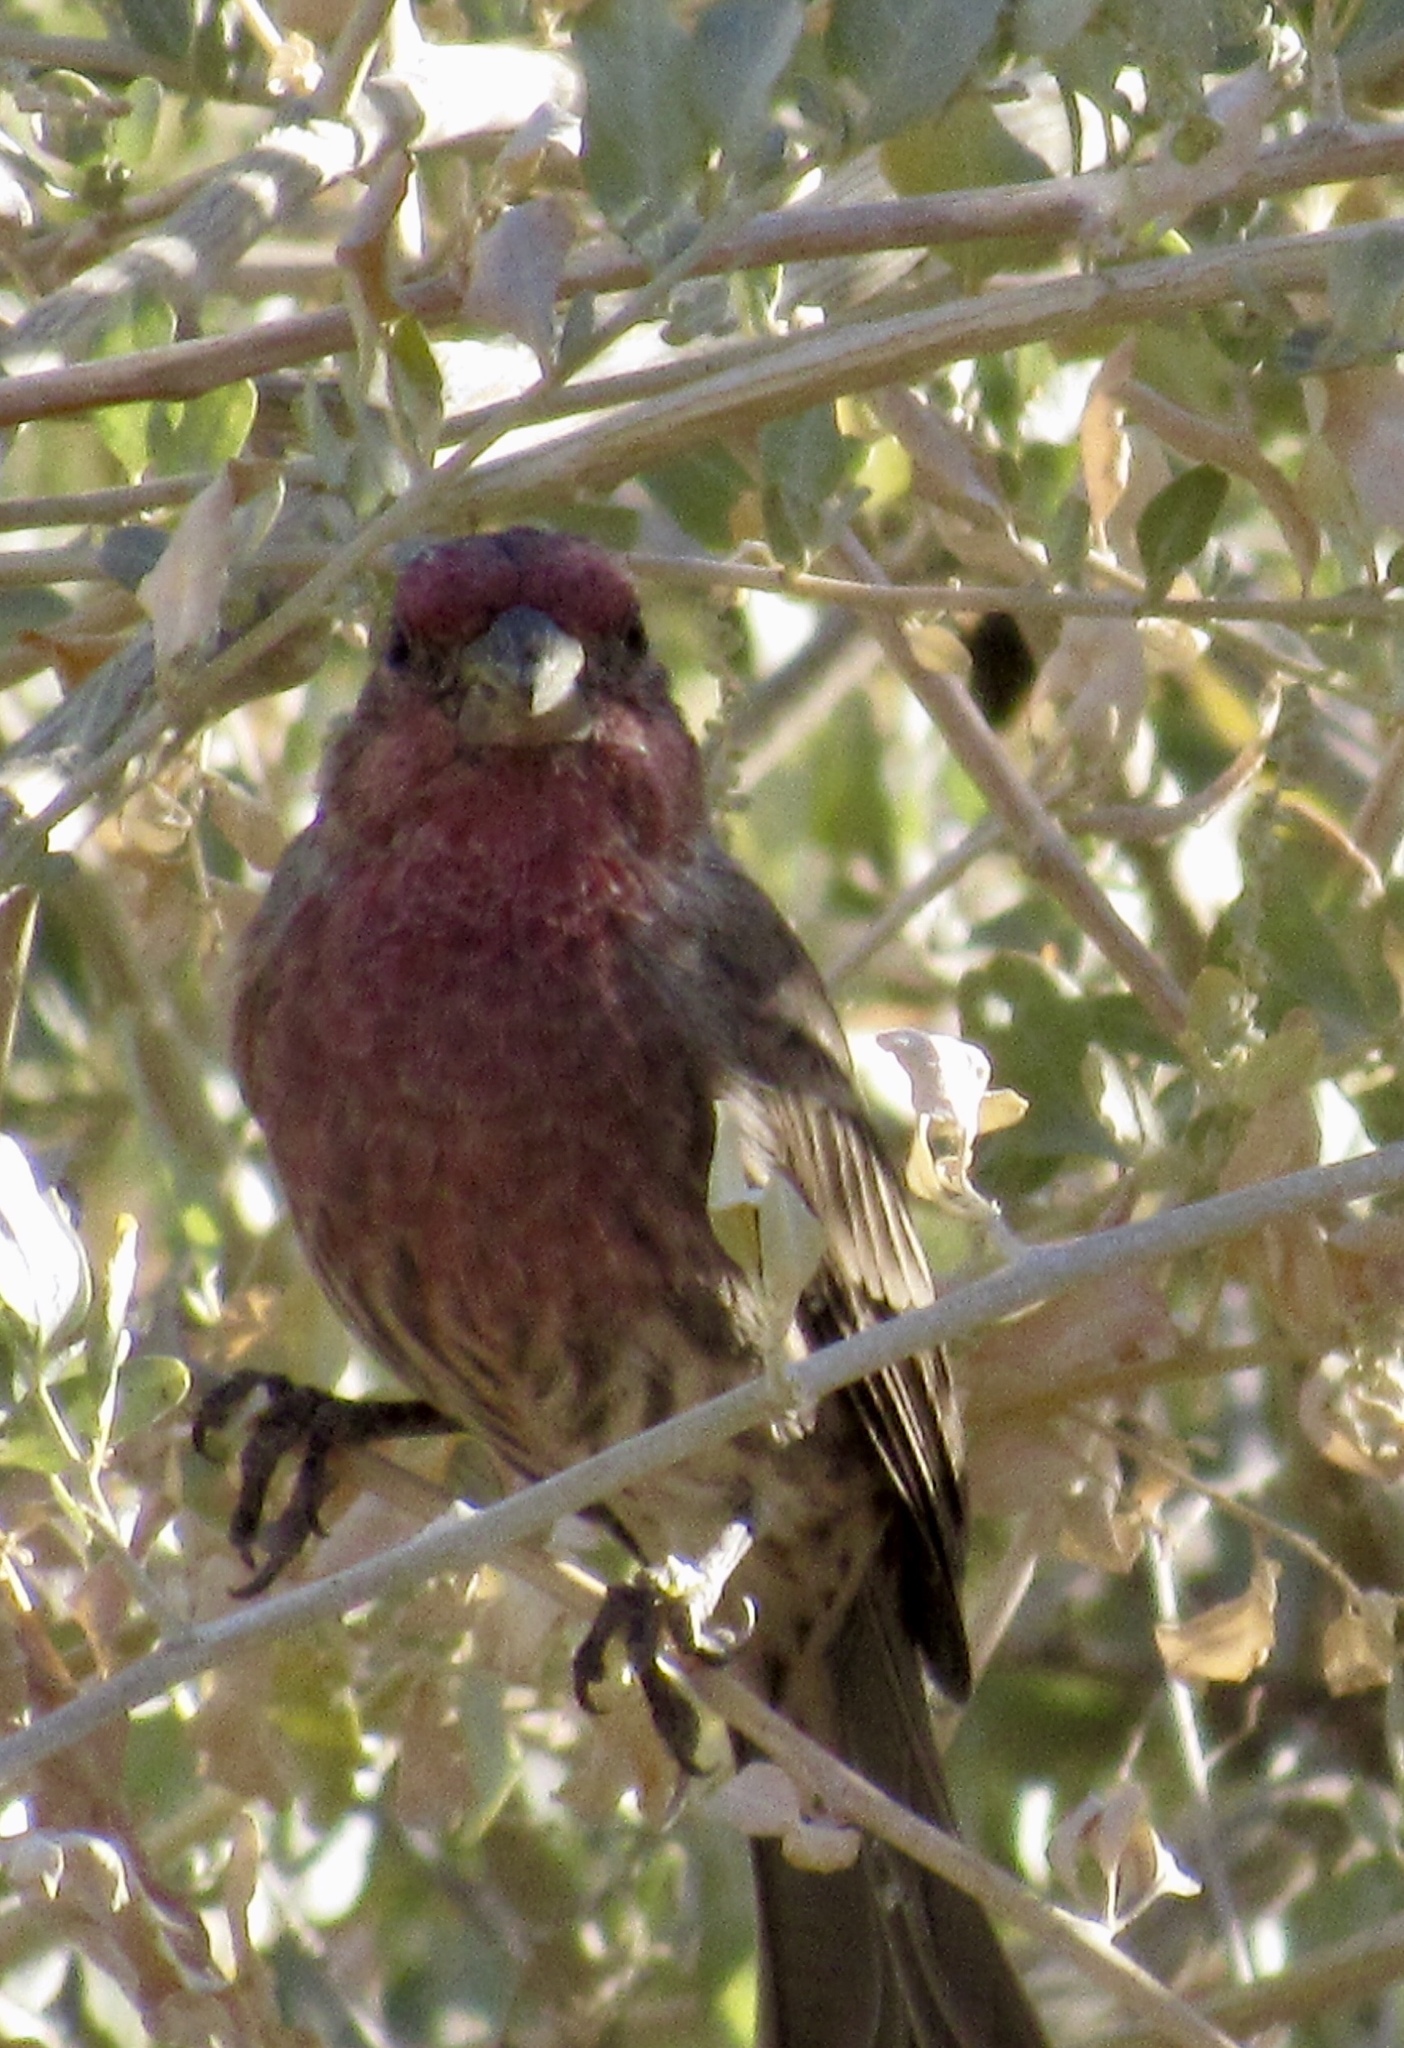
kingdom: Animalia
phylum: Chordata
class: Aves
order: Passeriformes
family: Fringillidae
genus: Haemorhous
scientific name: Haemorhous mexicanus
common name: House finch
